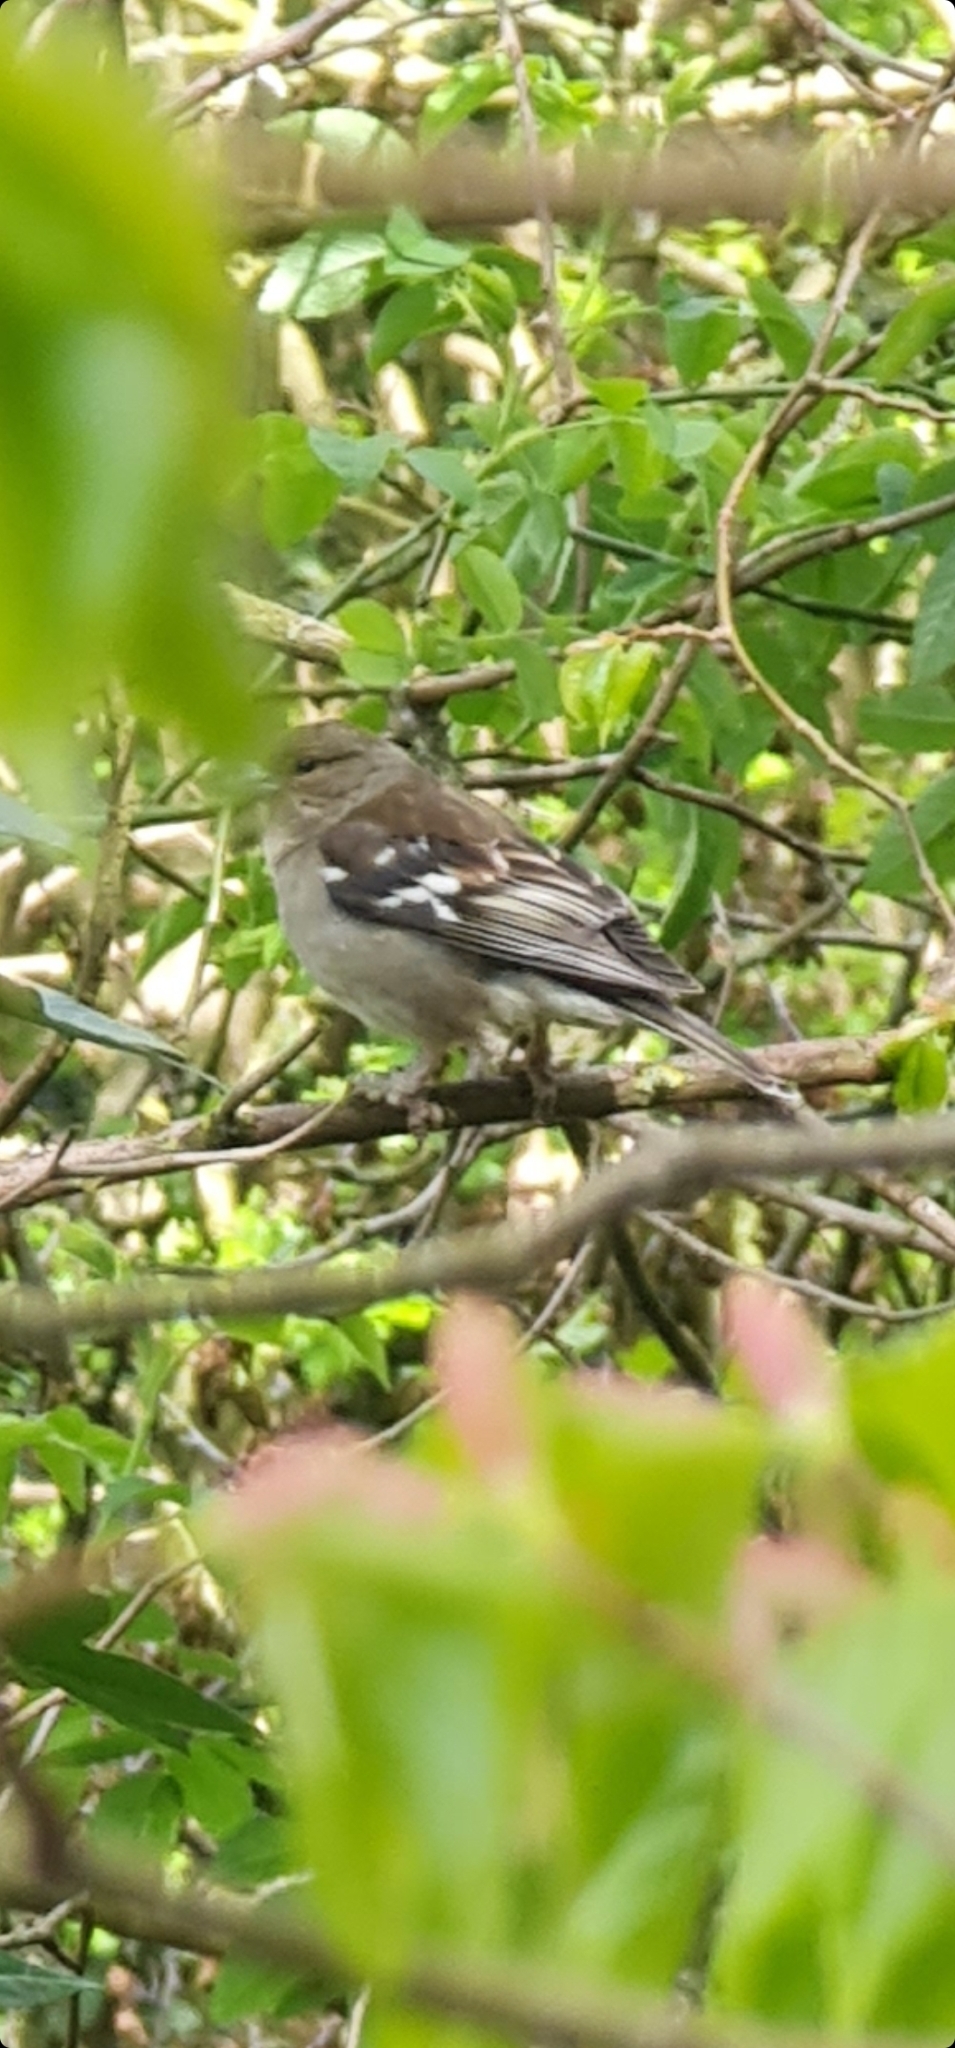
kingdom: Animalia
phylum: Chordata
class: Aves
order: Passeriformes
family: Fringillidae
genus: Fringilla
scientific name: Fringilla coelebs
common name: Common chaffinch
